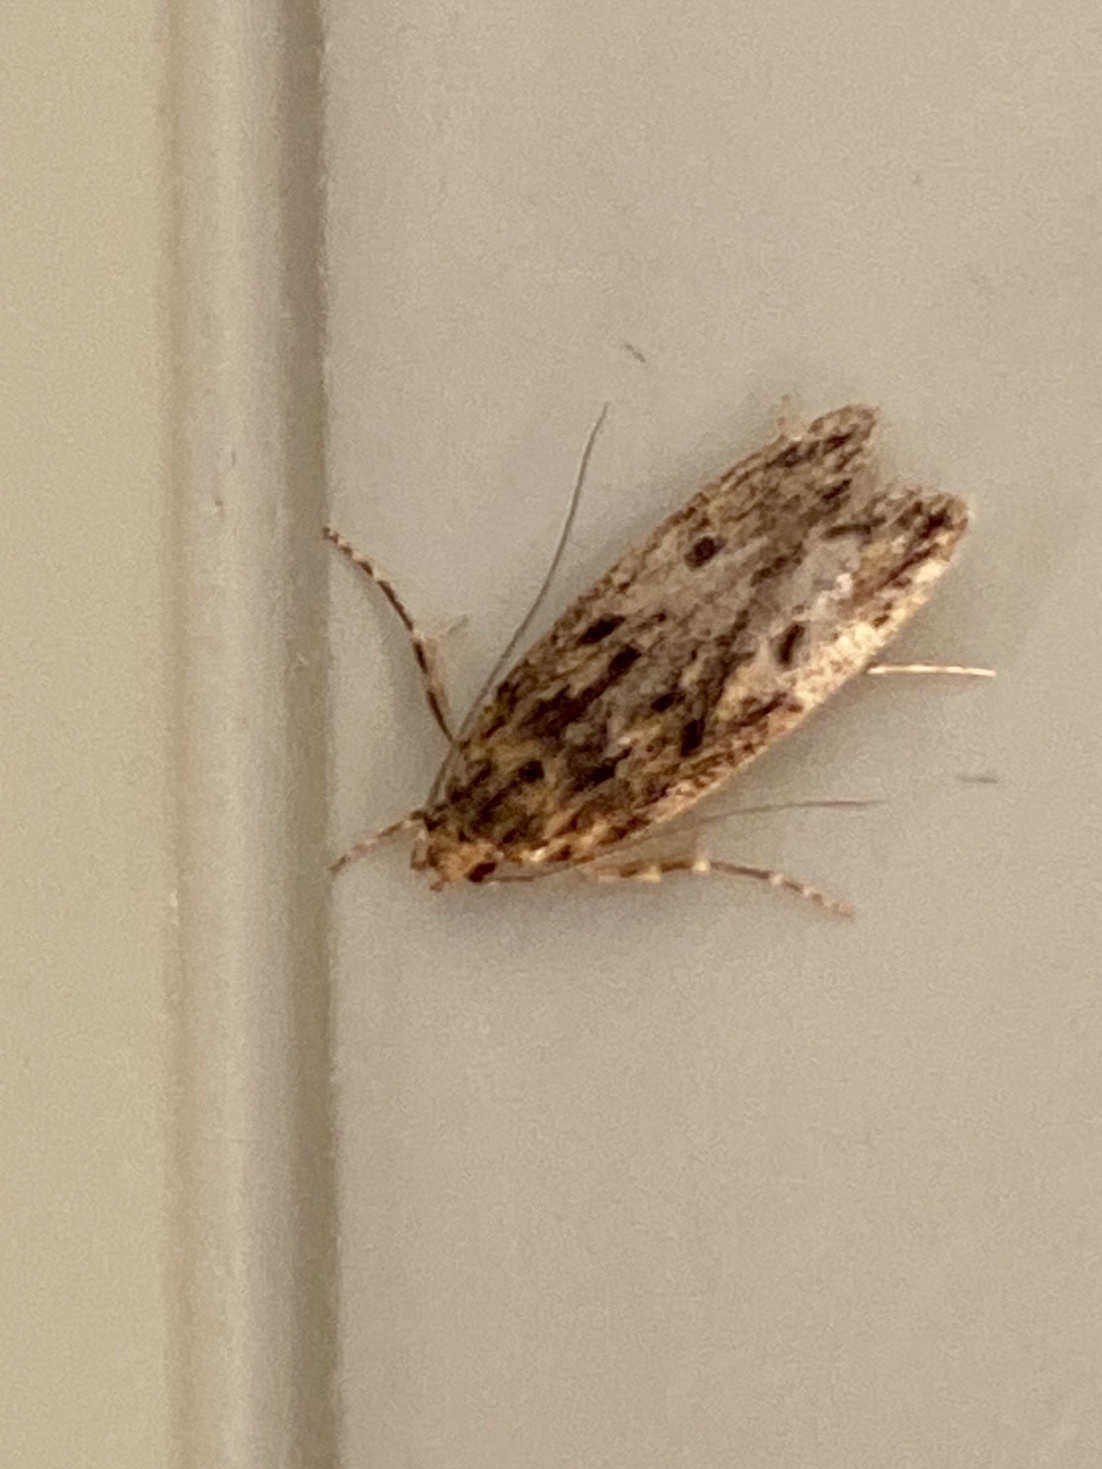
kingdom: Animalia
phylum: Arthropoda
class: Insecta
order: Lepidoptera
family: Oecophoridae
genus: Hofmannophila
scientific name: Hofmannophila pseudospretella
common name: Brown house moth
